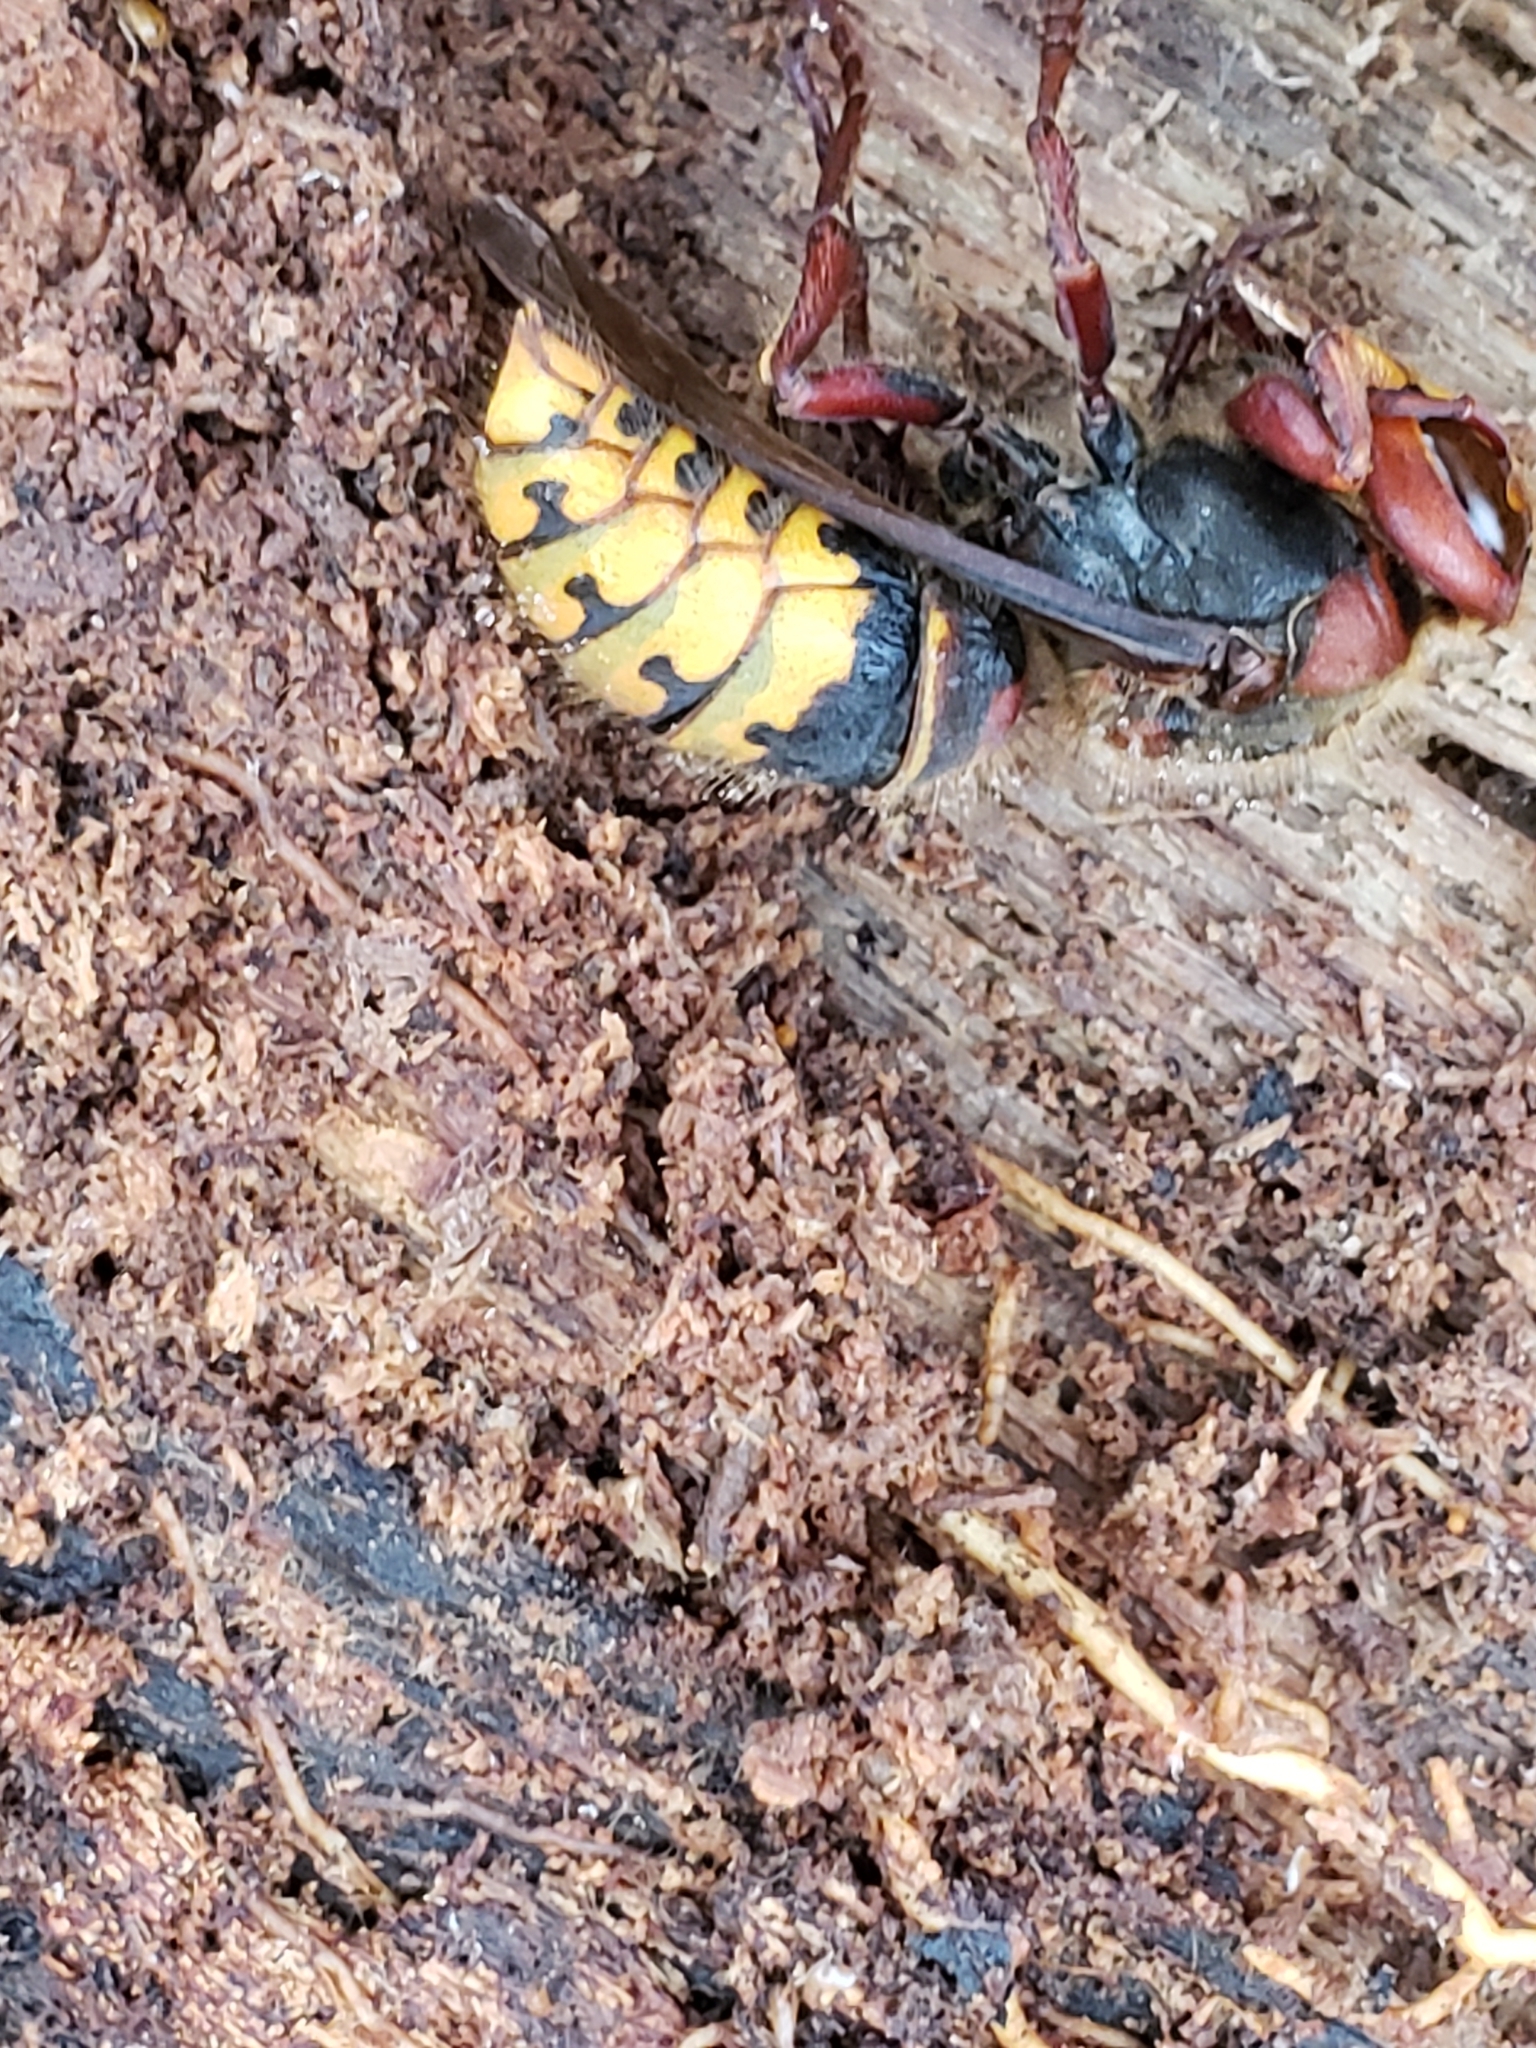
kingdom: Animalia
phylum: Arthropoda
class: Insecta
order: Hymenoptera
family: Vespidae
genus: Vespa
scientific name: Vespa crabro
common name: Hornet
